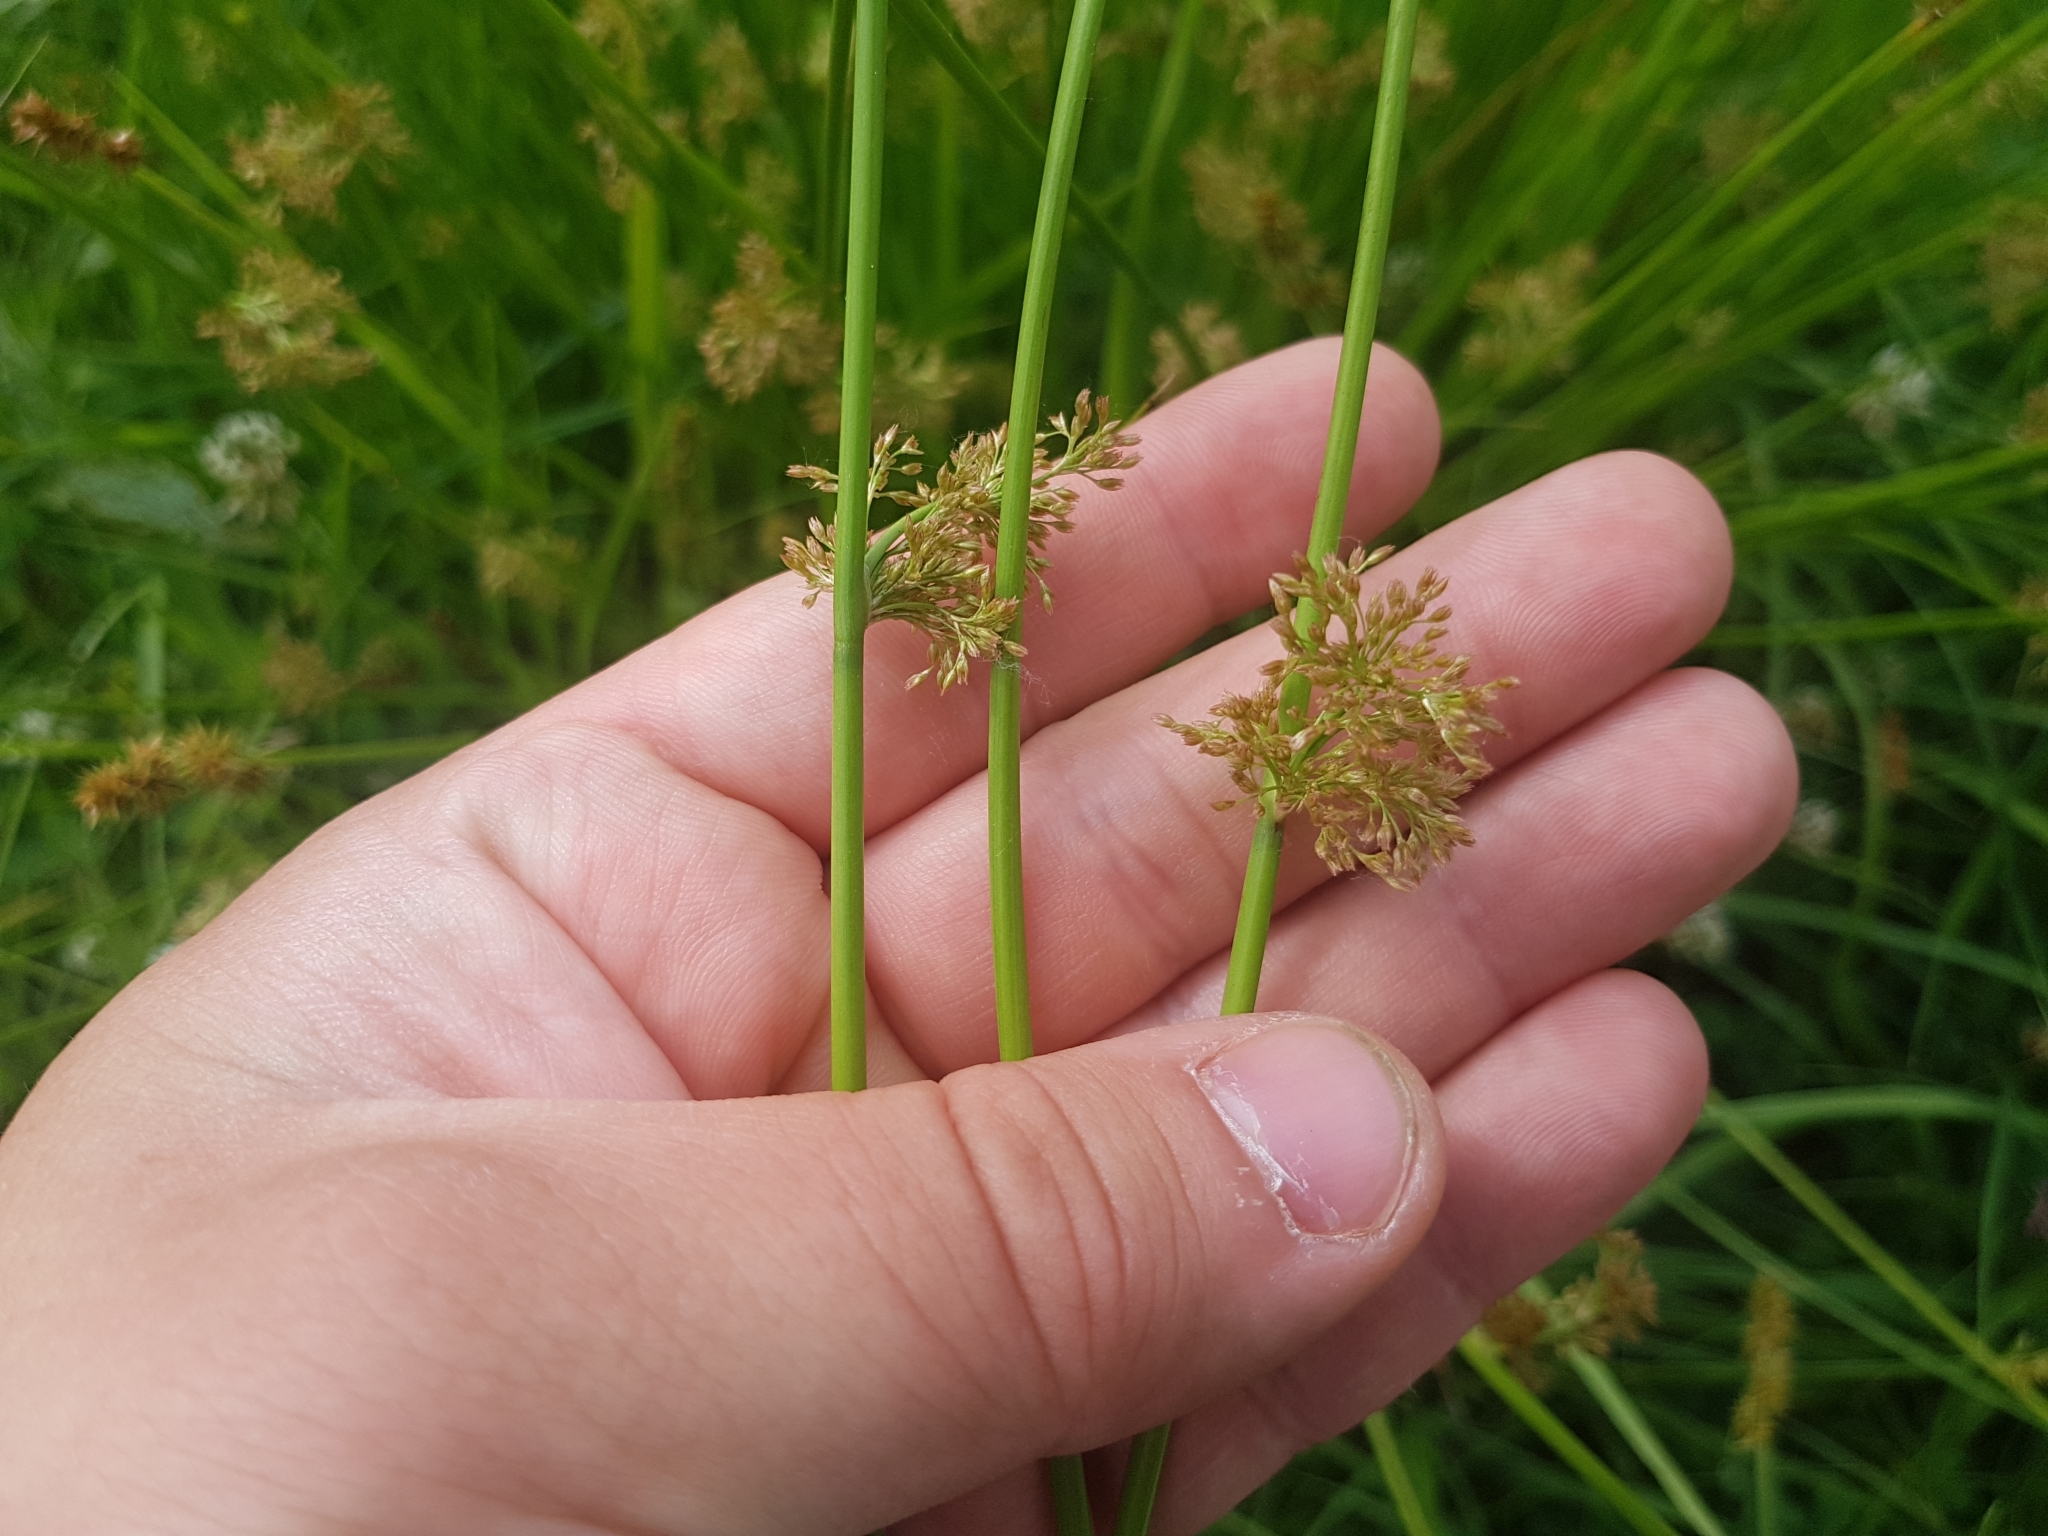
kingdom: Plantae
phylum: Tracheophyta
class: Liliopsida
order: Poales
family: Juncaceae
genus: Juncus
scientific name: Juncus effusus
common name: Soft rush
